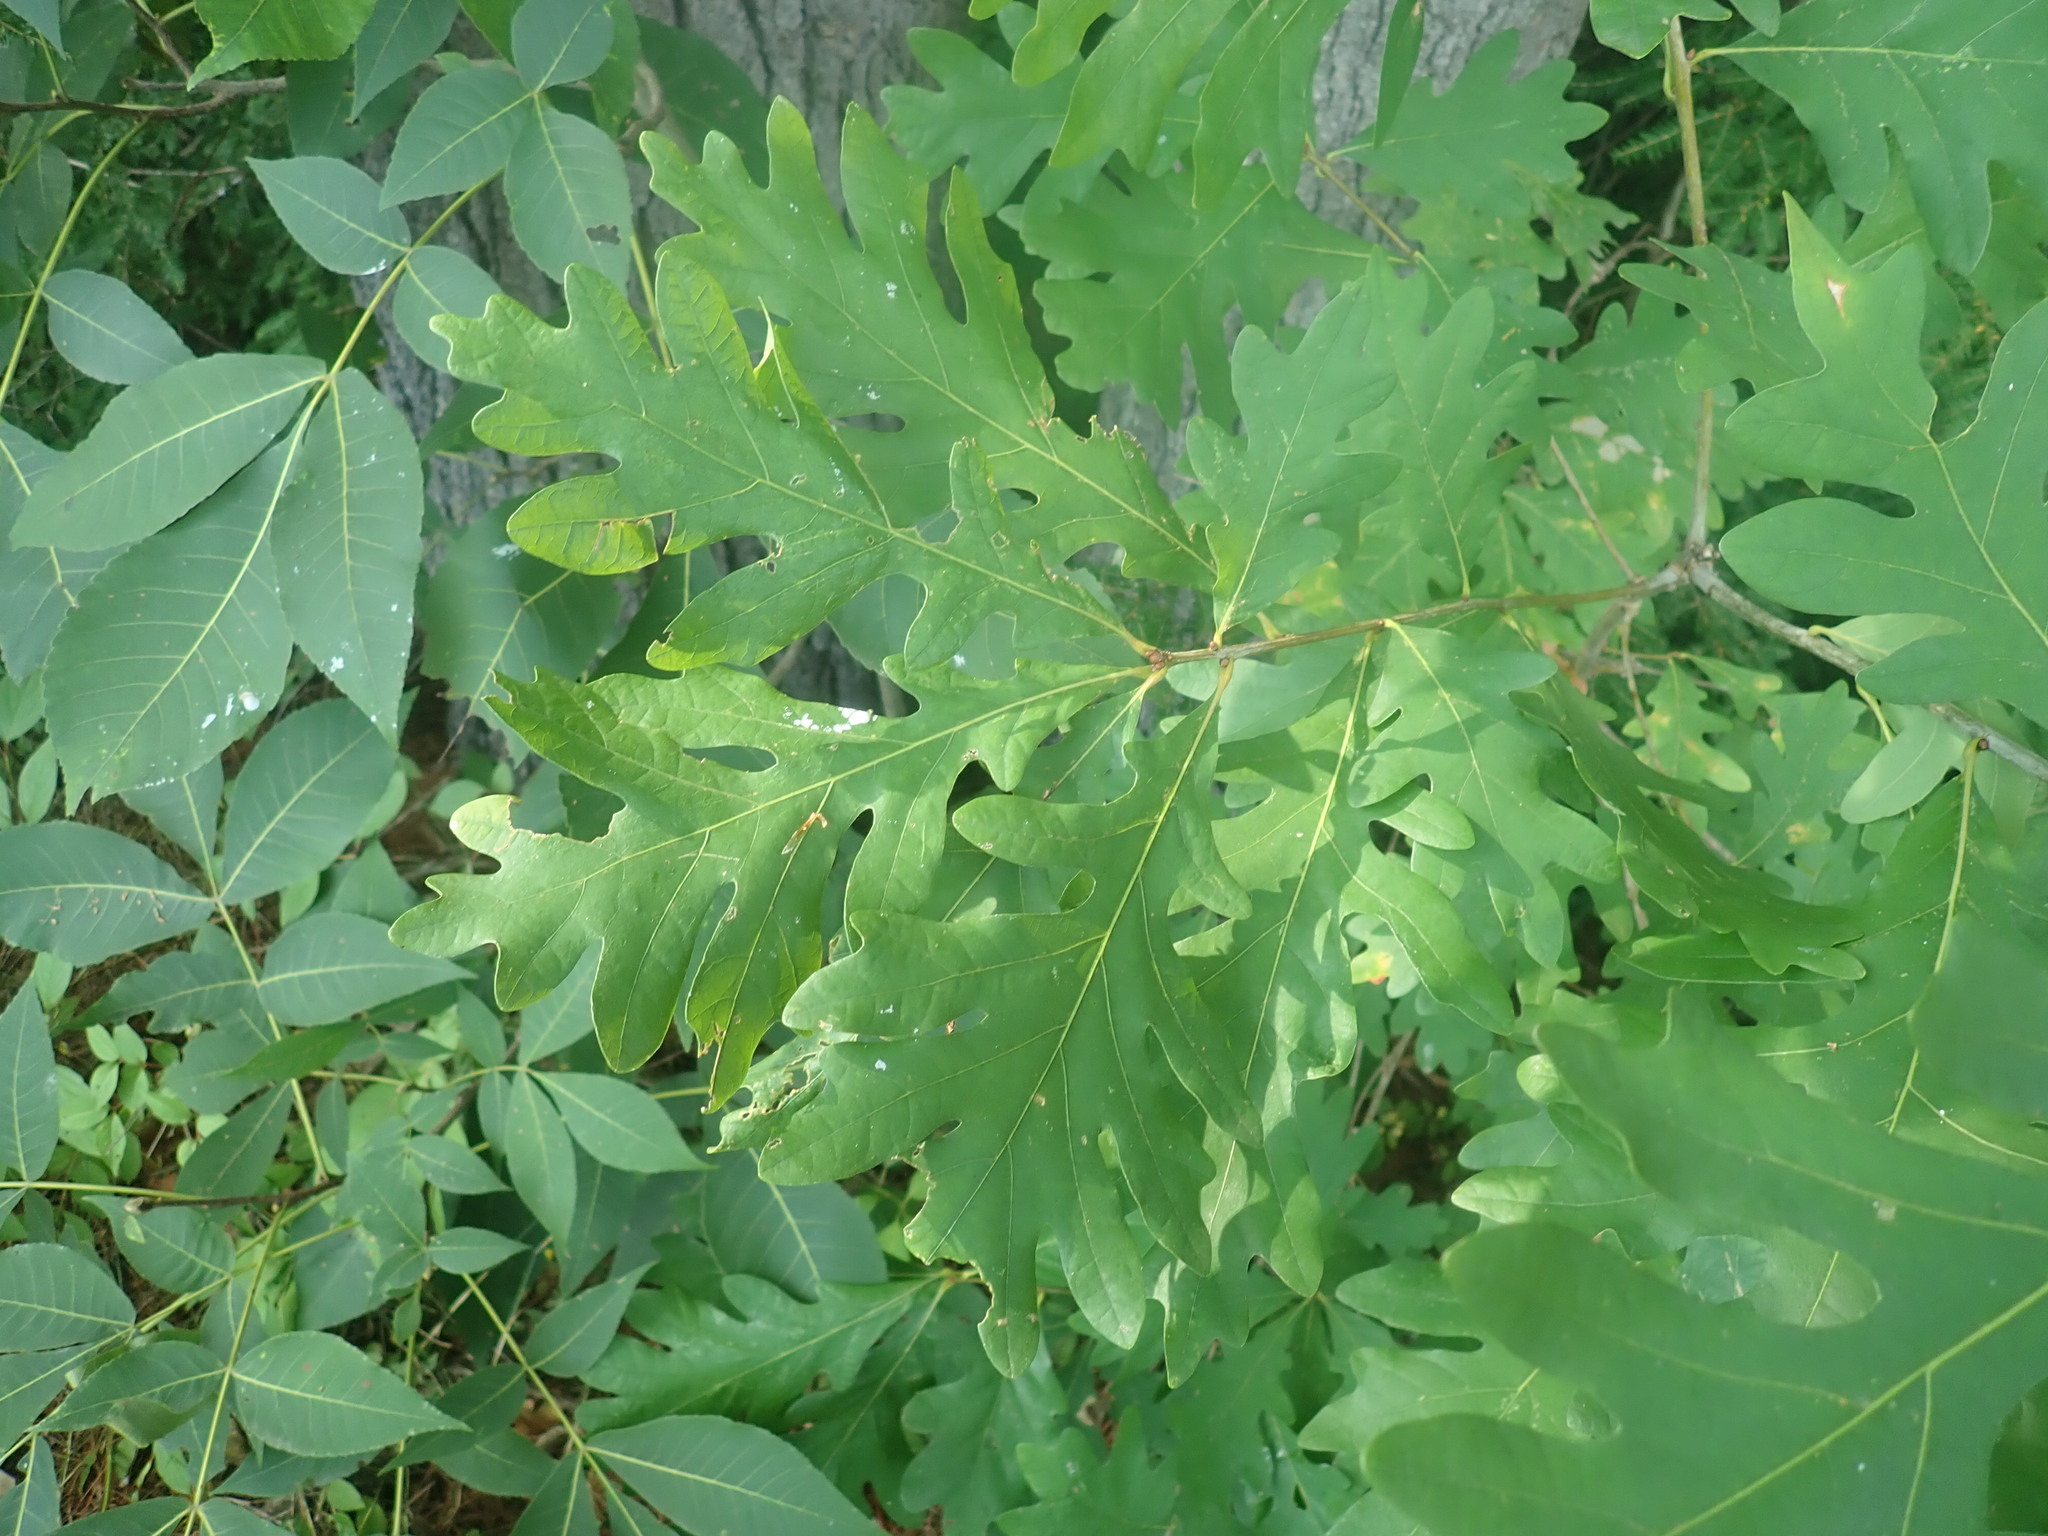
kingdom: Plantae
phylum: Tracheophyta
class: Magnoliopsida
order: Fagales
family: Fagaceae
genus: Quercus
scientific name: Quercus alba
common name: White oak
